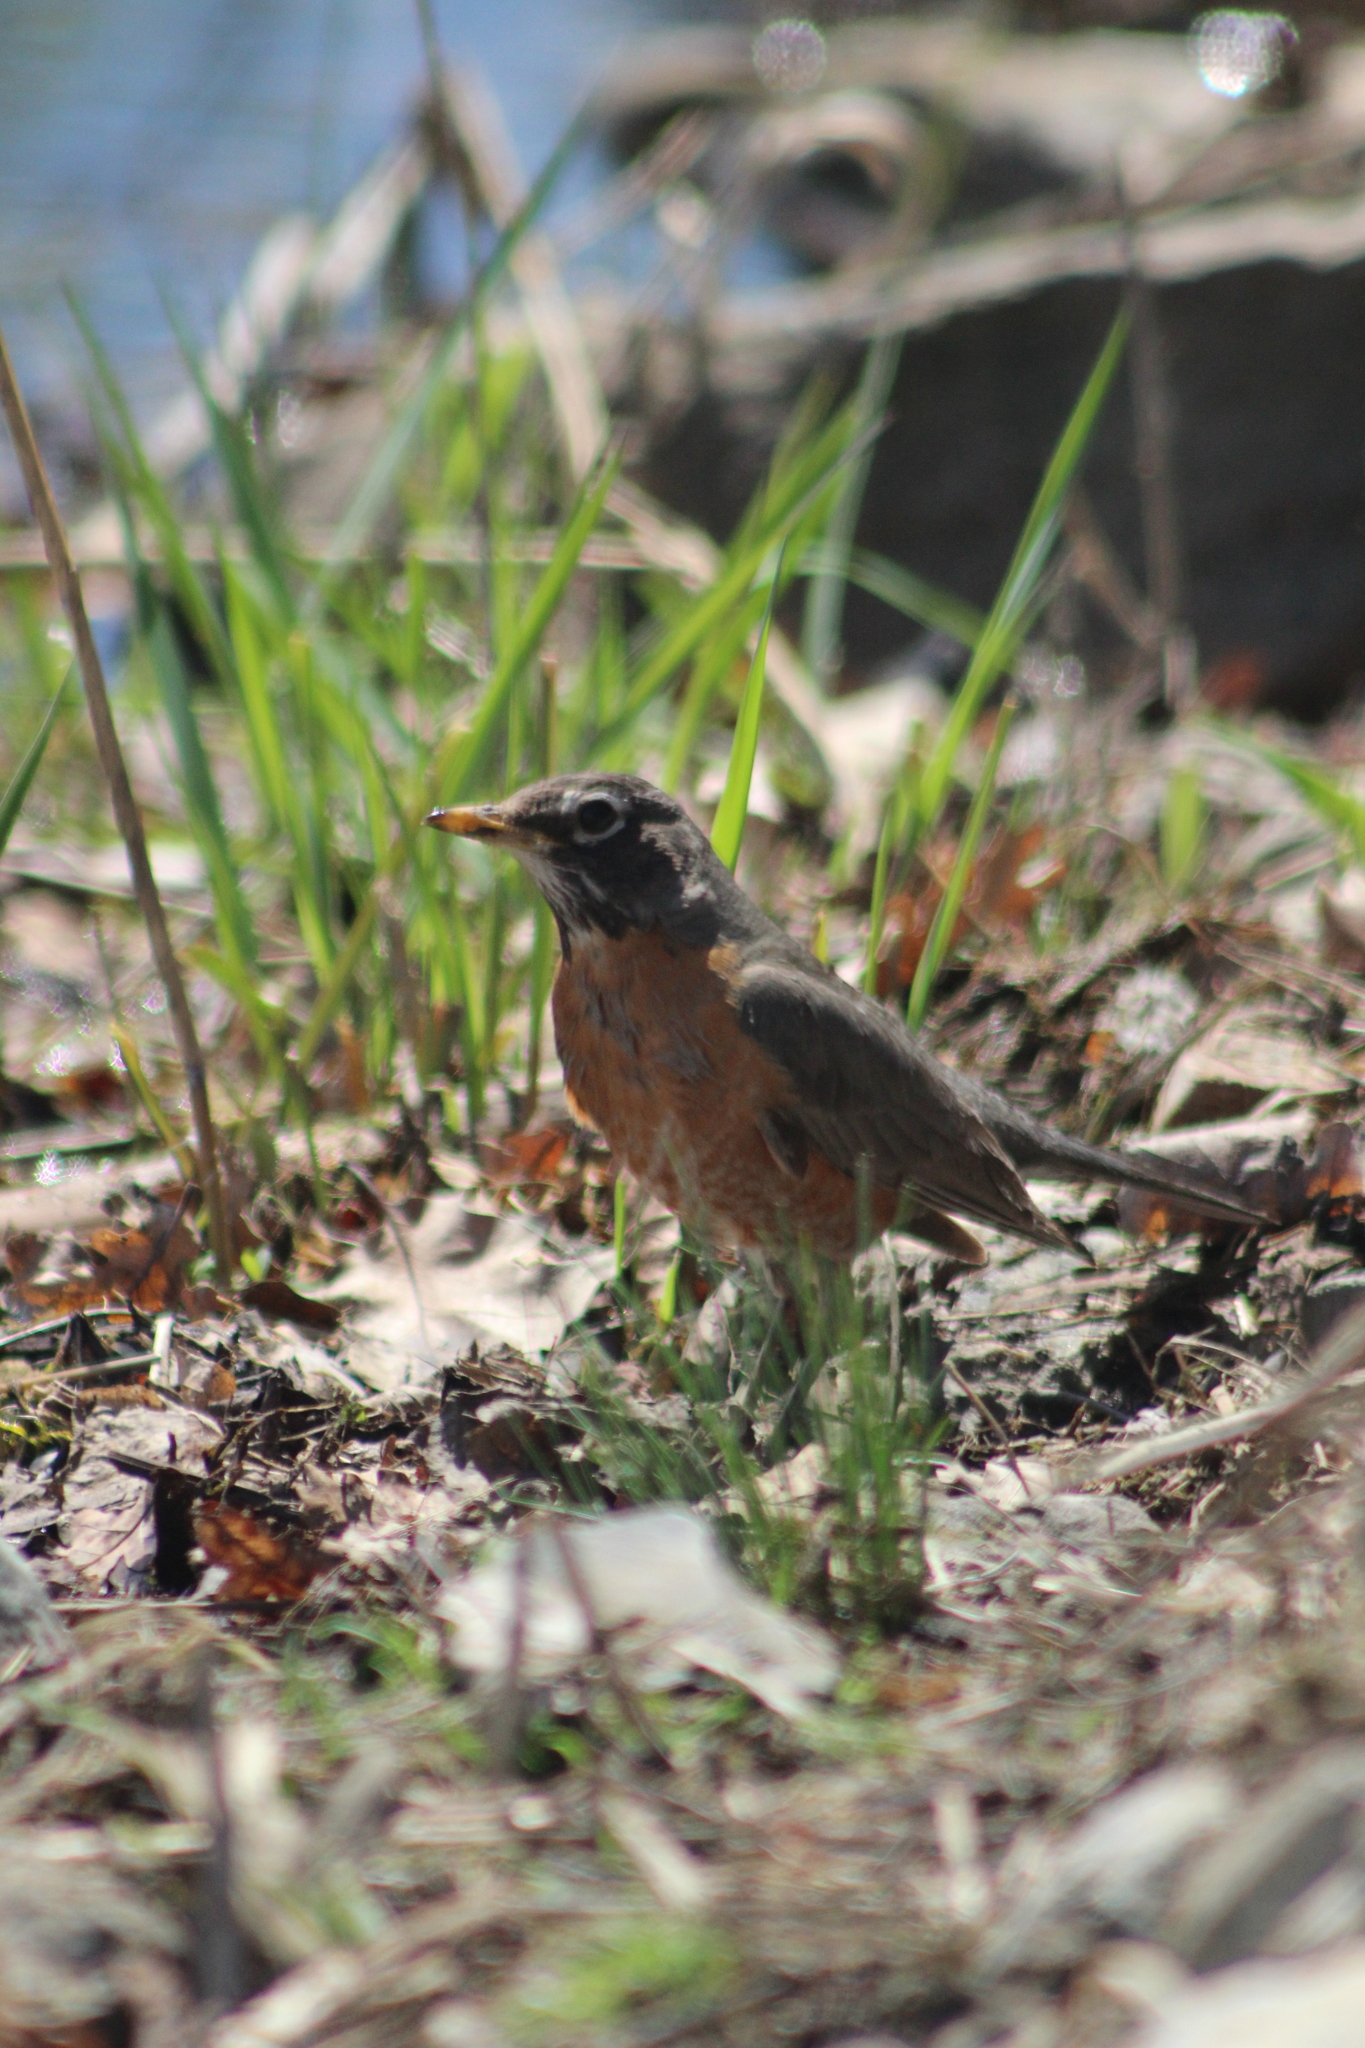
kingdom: Animalia
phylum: Chordata
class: Aves
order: Passeriformes
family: Turdidae
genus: Turdus
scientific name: Turdus migratorius
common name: American robin
